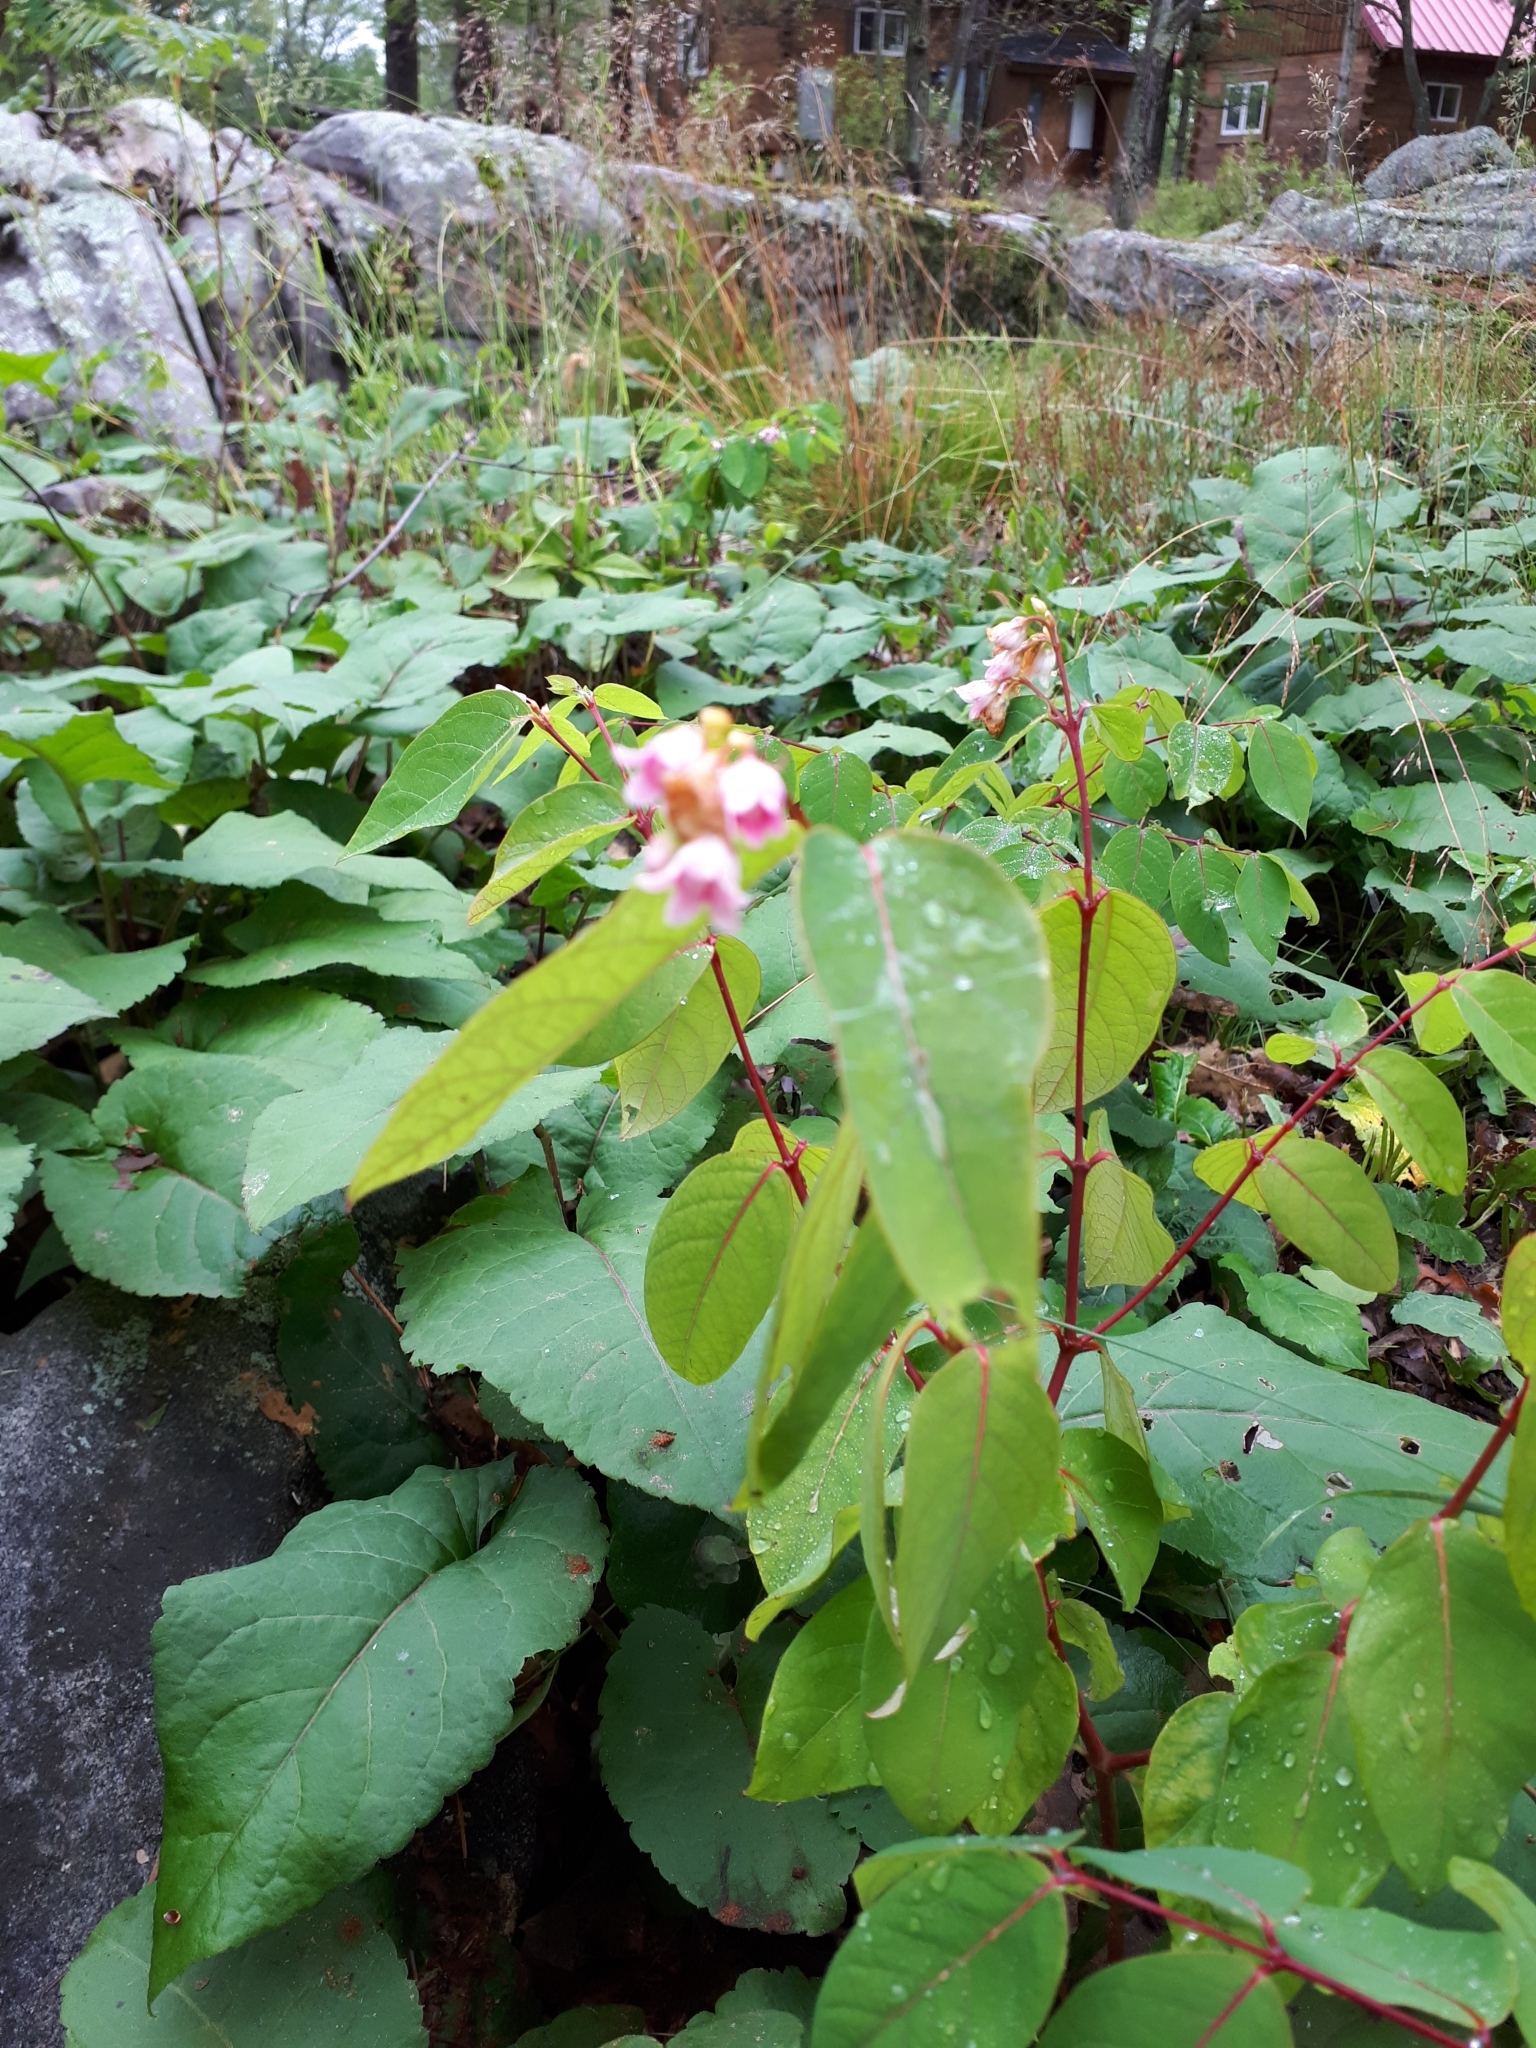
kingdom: Plantae
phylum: Tracheophyta
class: Magnoliopsida
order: Gentianales
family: Apocynaceae
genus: Apocynum
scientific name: Apocynum androsaemifolium
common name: Spreading dogbane
